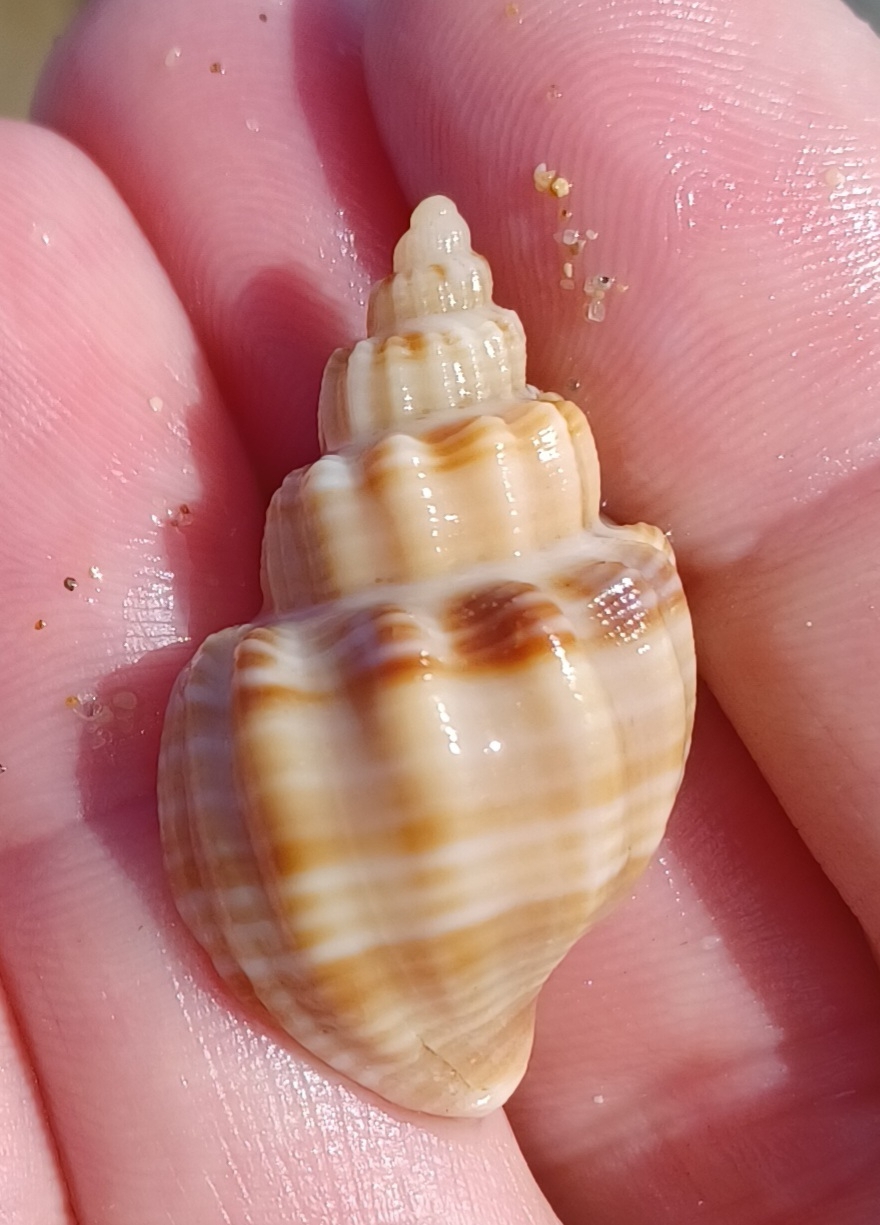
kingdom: Animalia
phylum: Mollusca
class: Gastropoda
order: Neogastropoda
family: Cancellariidae
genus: Merica
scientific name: Merica undulata
